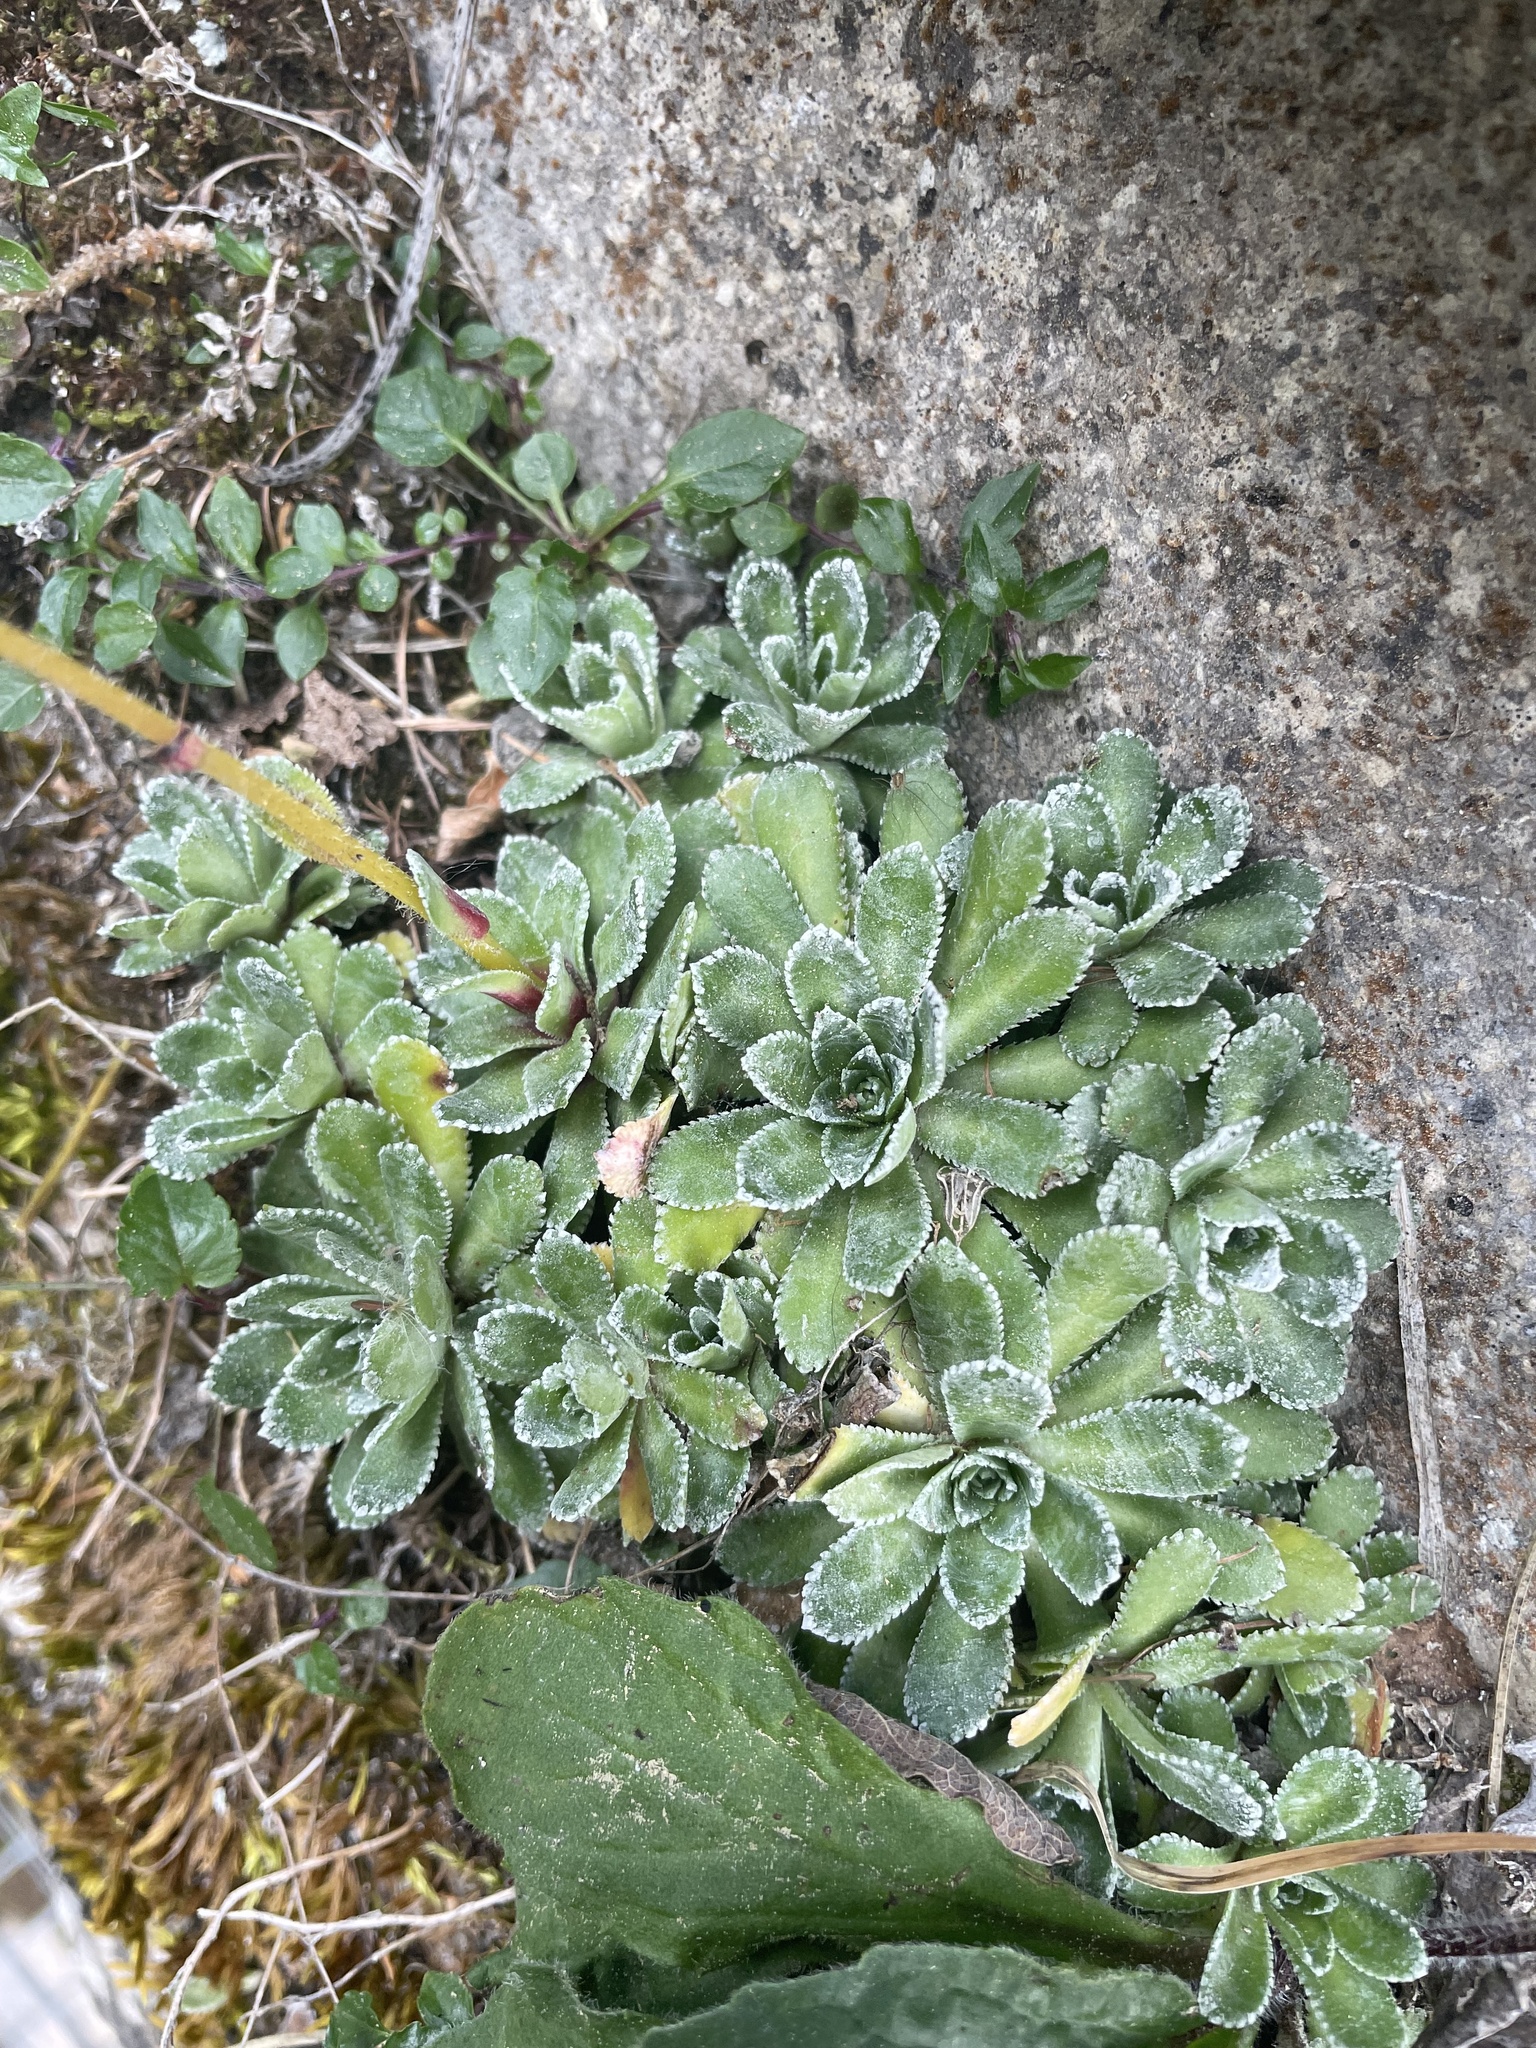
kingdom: Plantae
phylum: Tracheophyta
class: Magnoliopsida
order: Saxifragales
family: Saxifragaceae
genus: Saxifraga
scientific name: Saxifraga paniculata
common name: Livelong saxifrage
